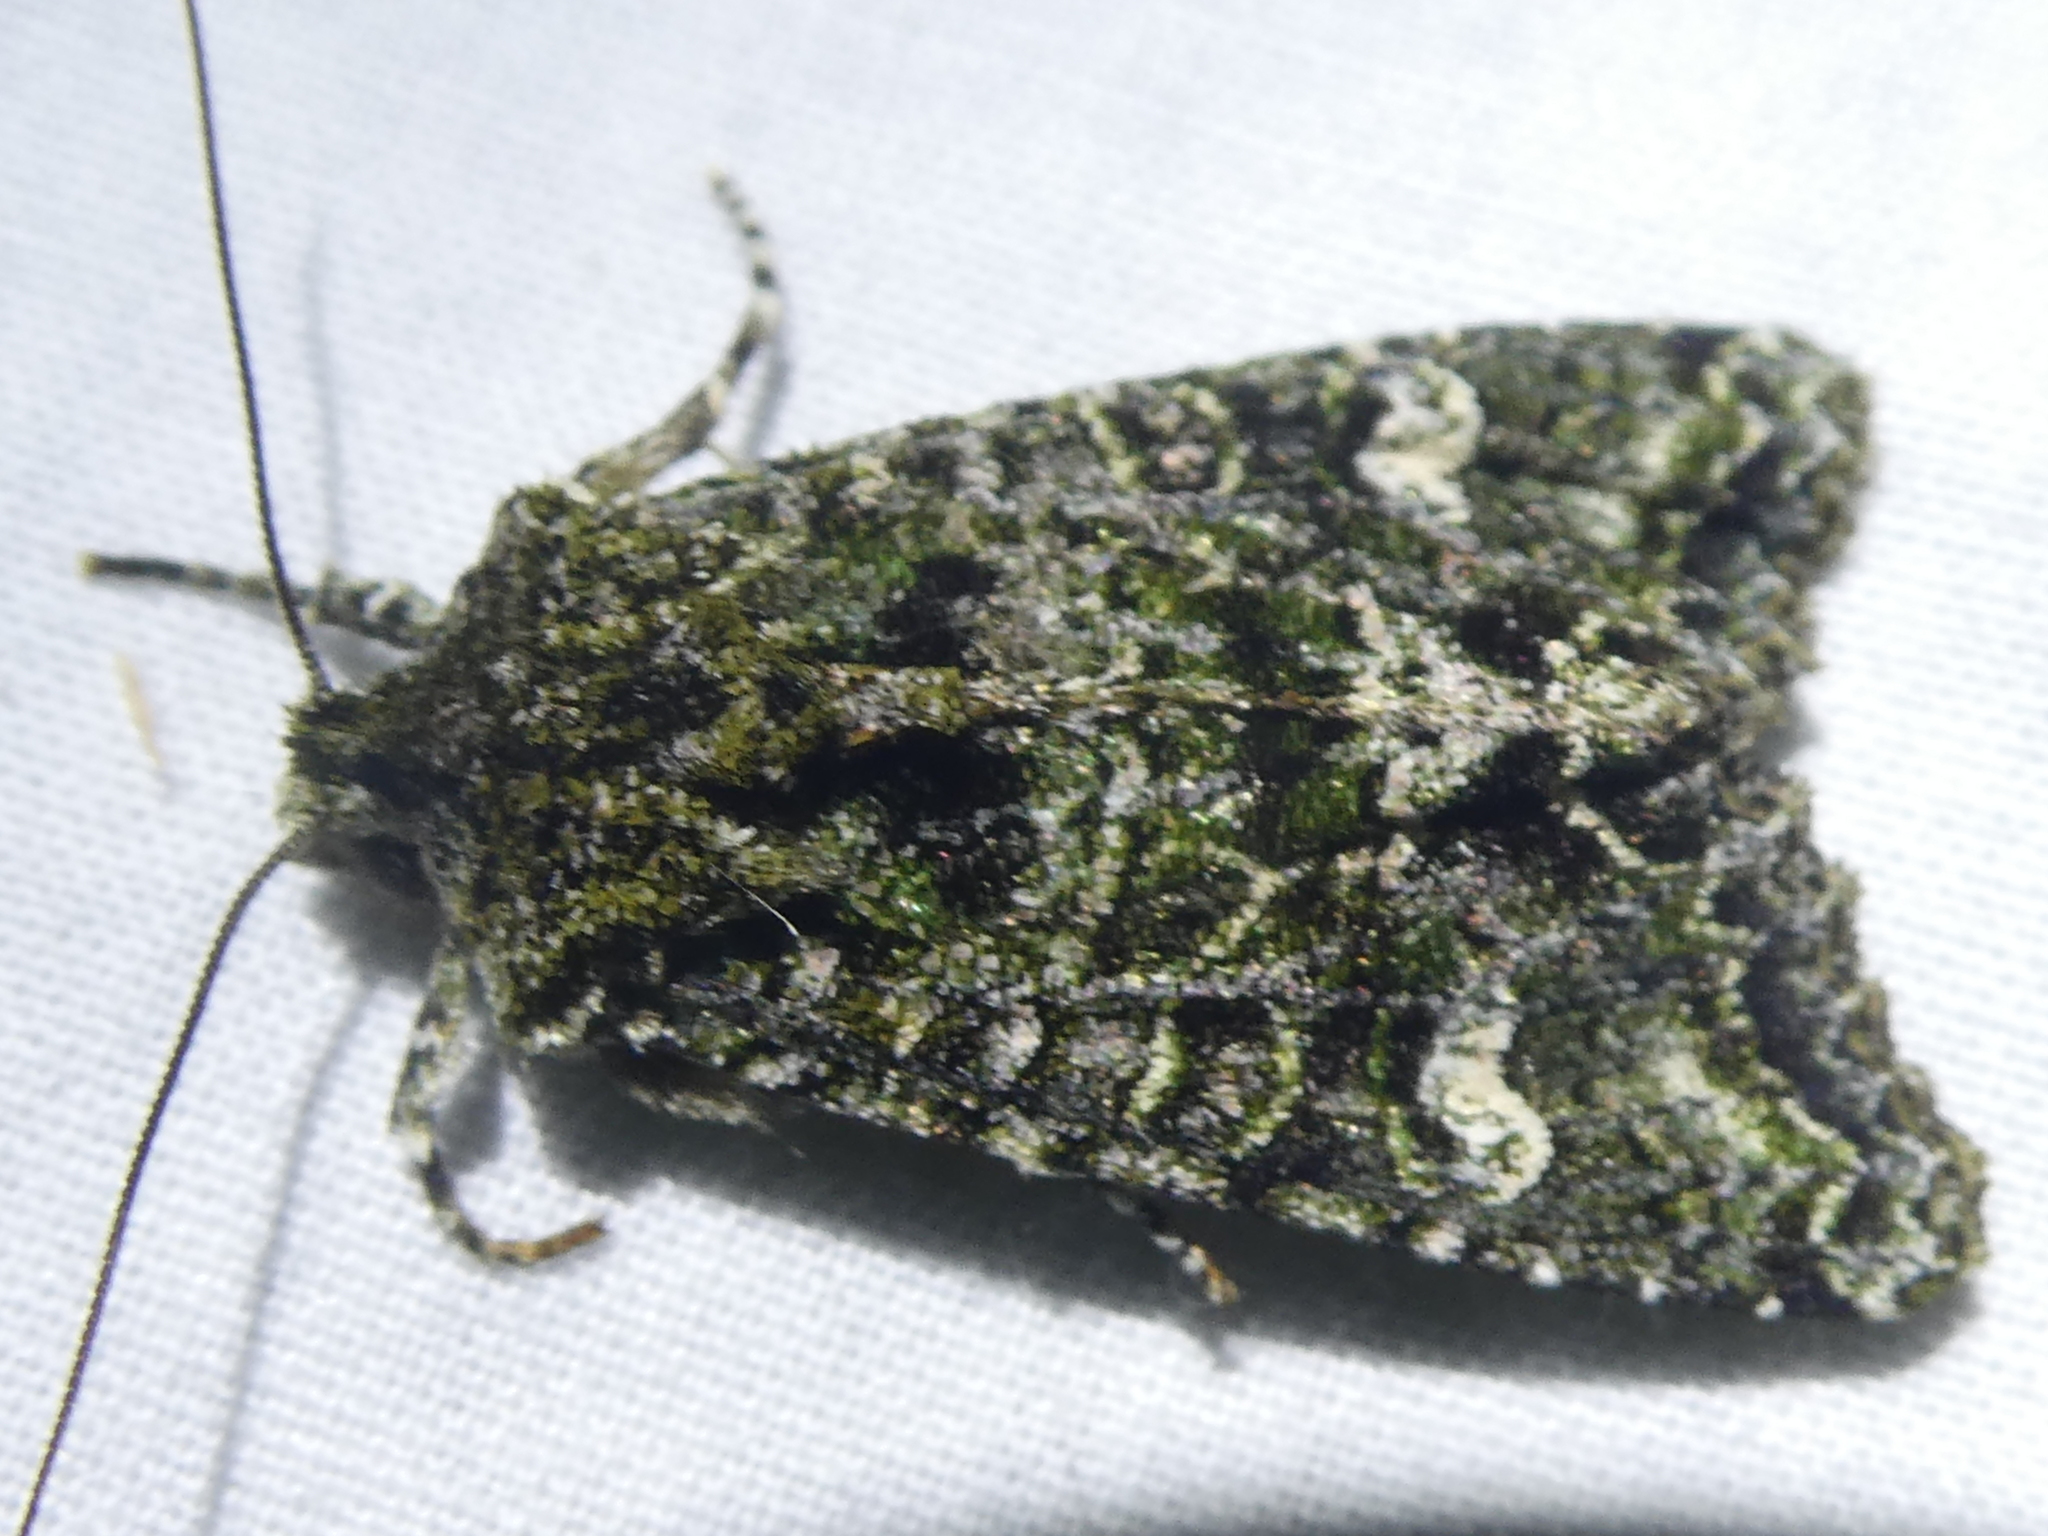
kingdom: Animalia
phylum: Arthropoda
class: Insecta
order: Lepidoptera
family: Noctuidae
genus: Ichneutica
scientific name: Ichneutica
